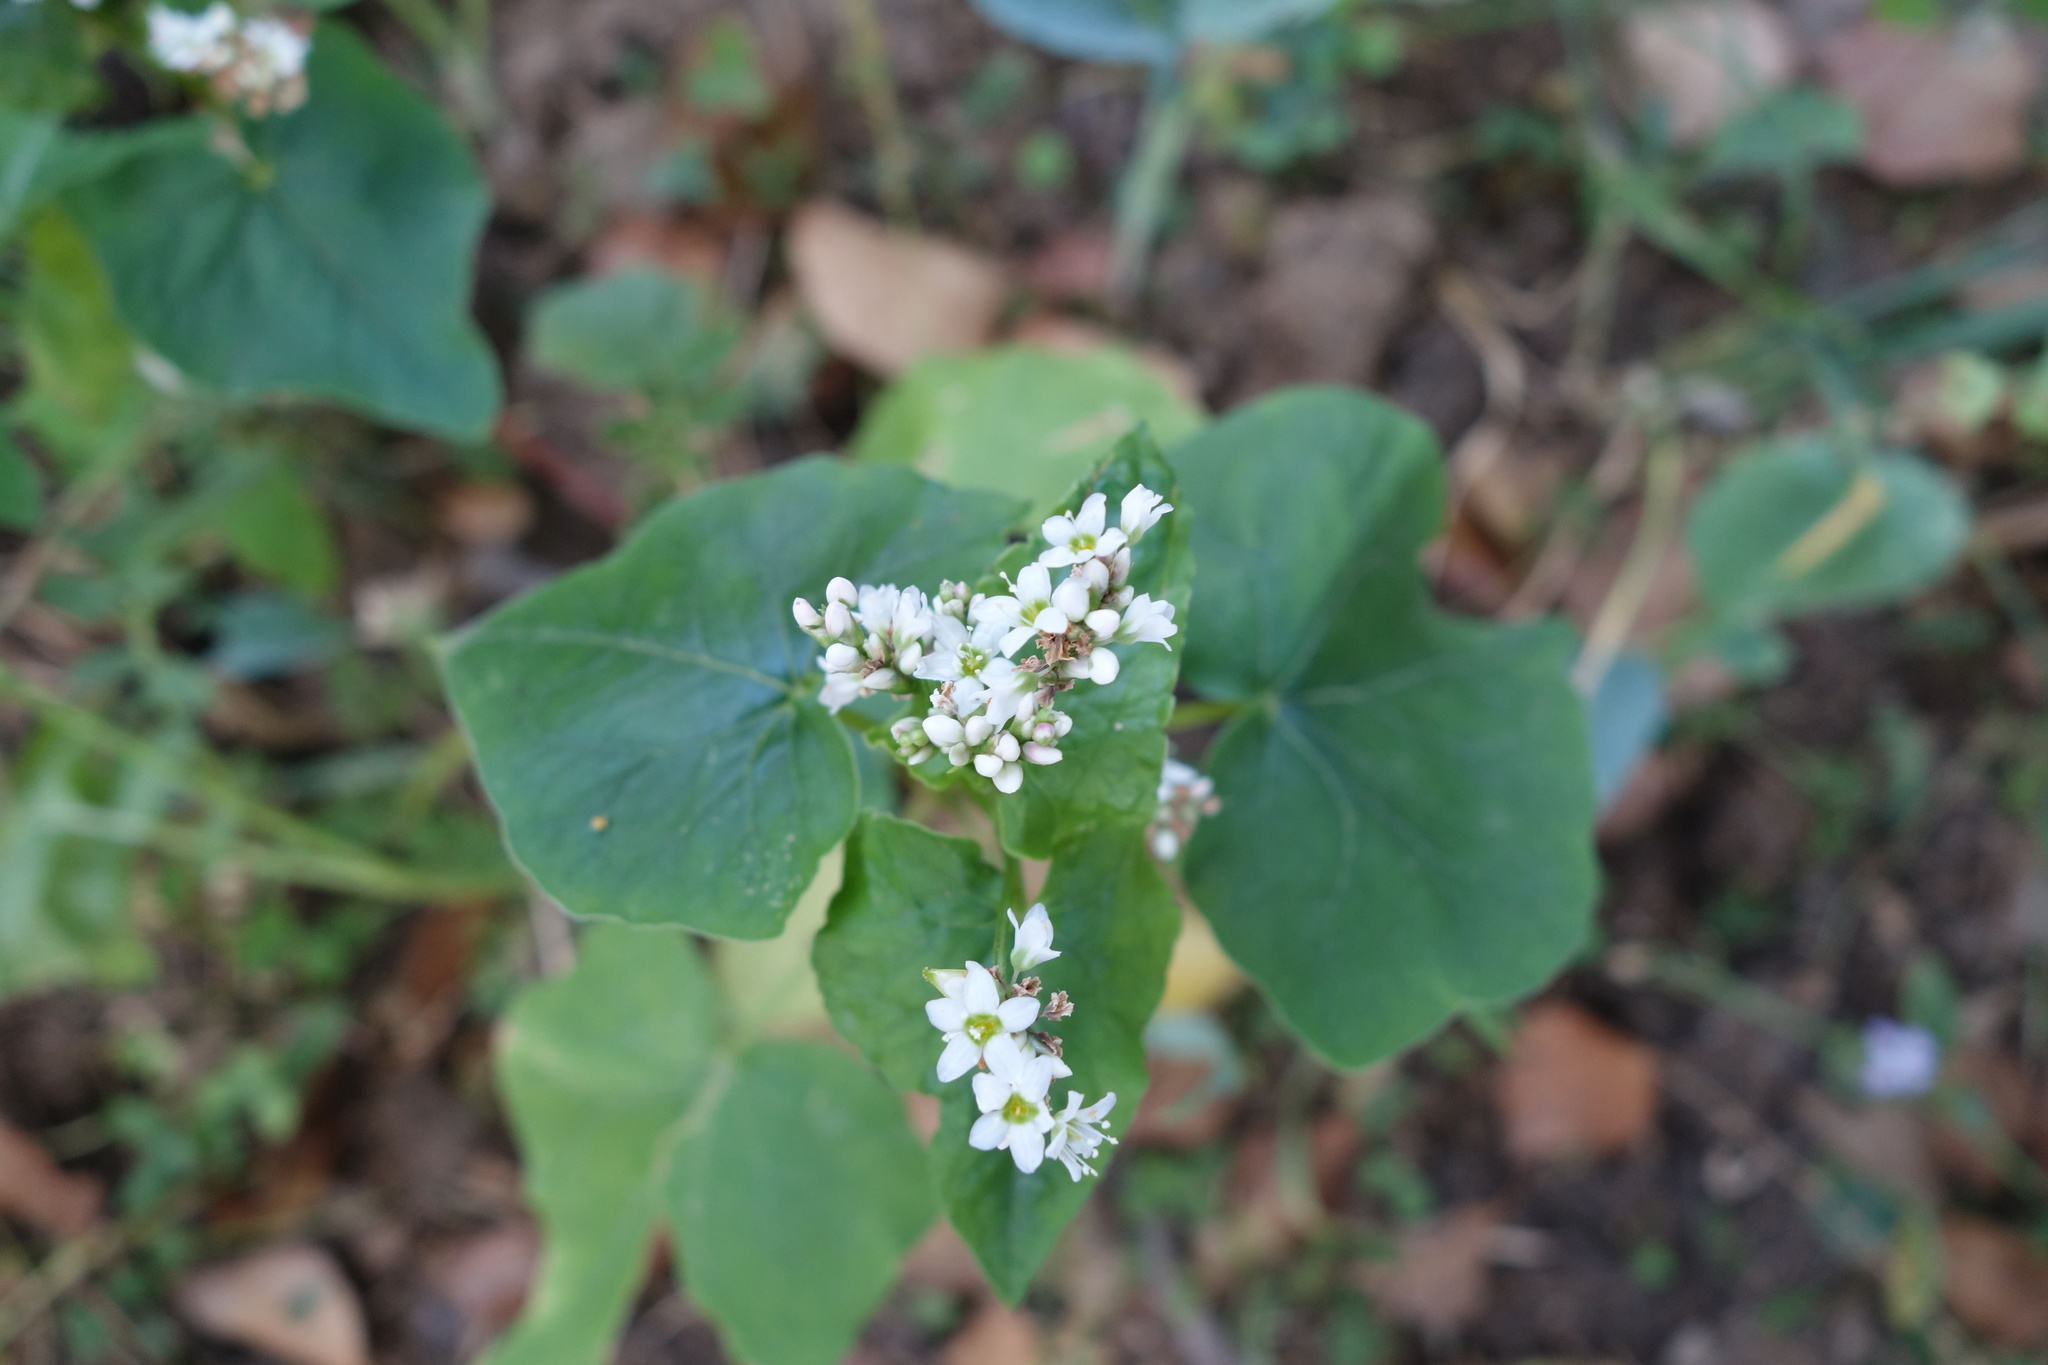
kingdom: Plantae
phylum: Tracheophyta
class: Magnoliopsida
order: Caryophyllales
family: Polygonaceae
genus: Fagopyrum
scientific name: Fagopyrum esculentum
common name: Buckwheat
